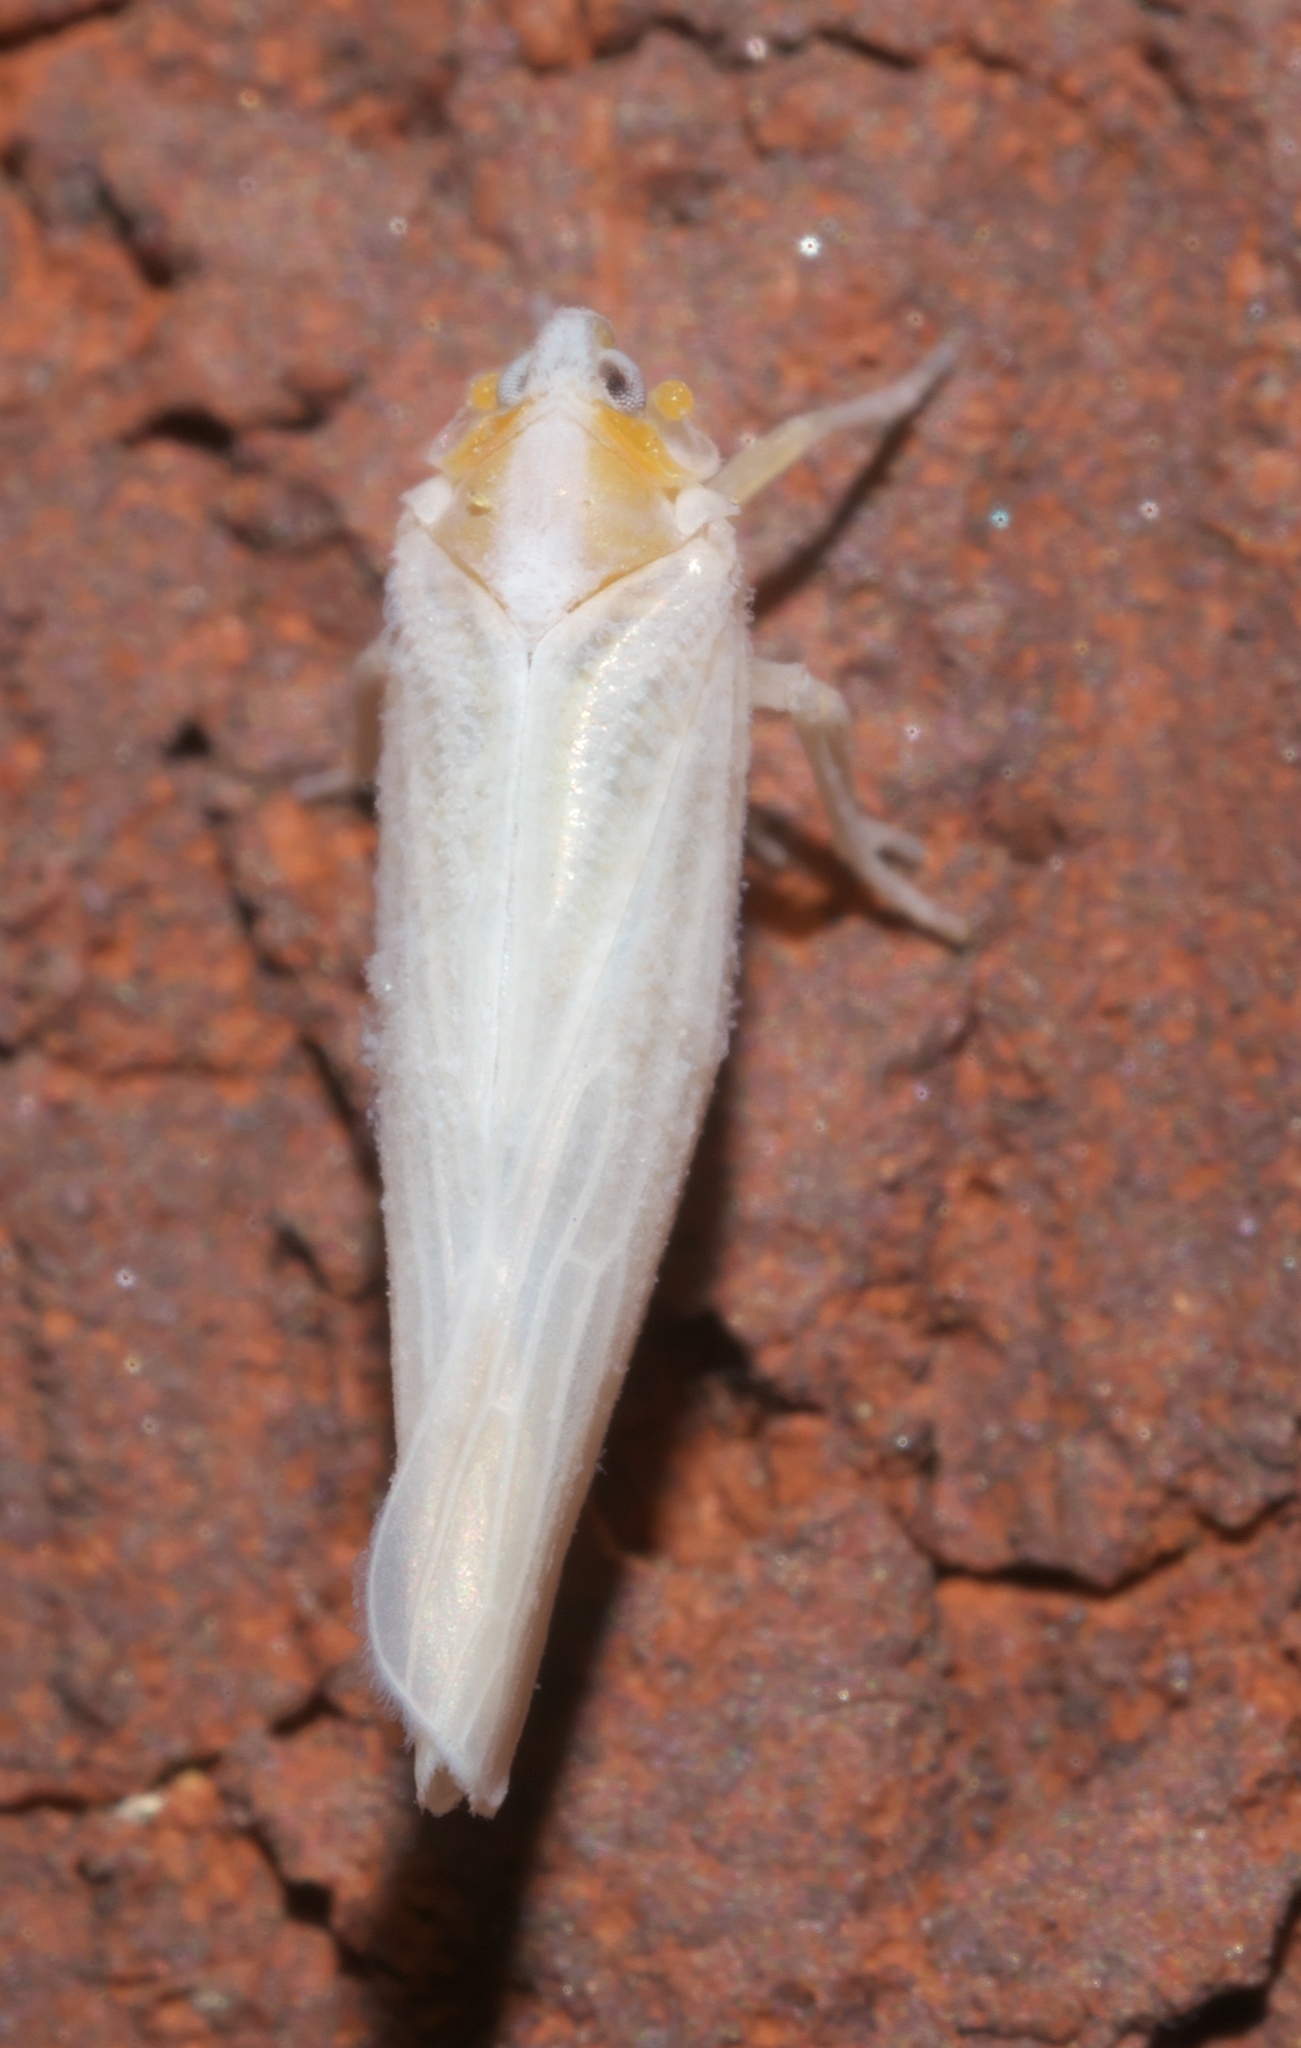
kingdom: Animalia
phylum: Arthropoda
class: Insecta
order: Hemiptera
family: Derbidae
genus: Neocenchrea
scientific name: Neocenchrea heidemanni
